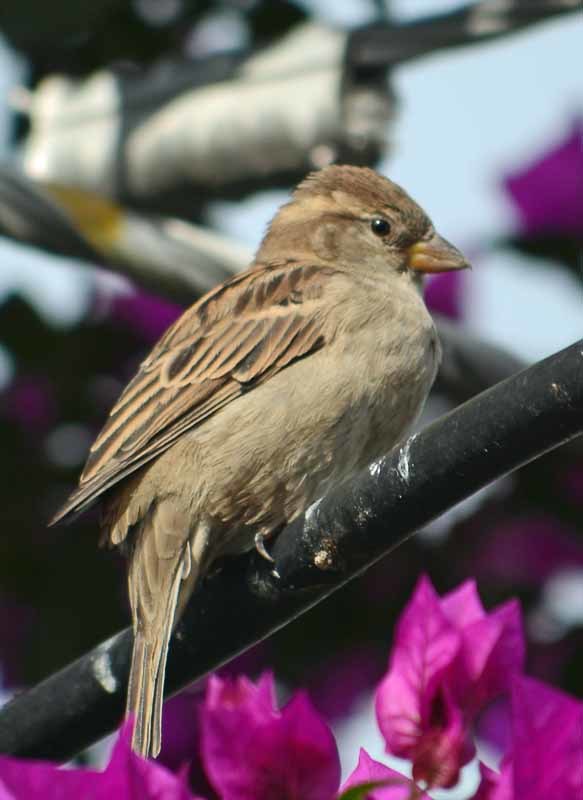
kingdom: Animalia
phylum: Chordata
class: Aves
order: Passeriformes
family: Passeridae
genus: Passer
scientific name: Passer domesticus
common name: House sparrow
